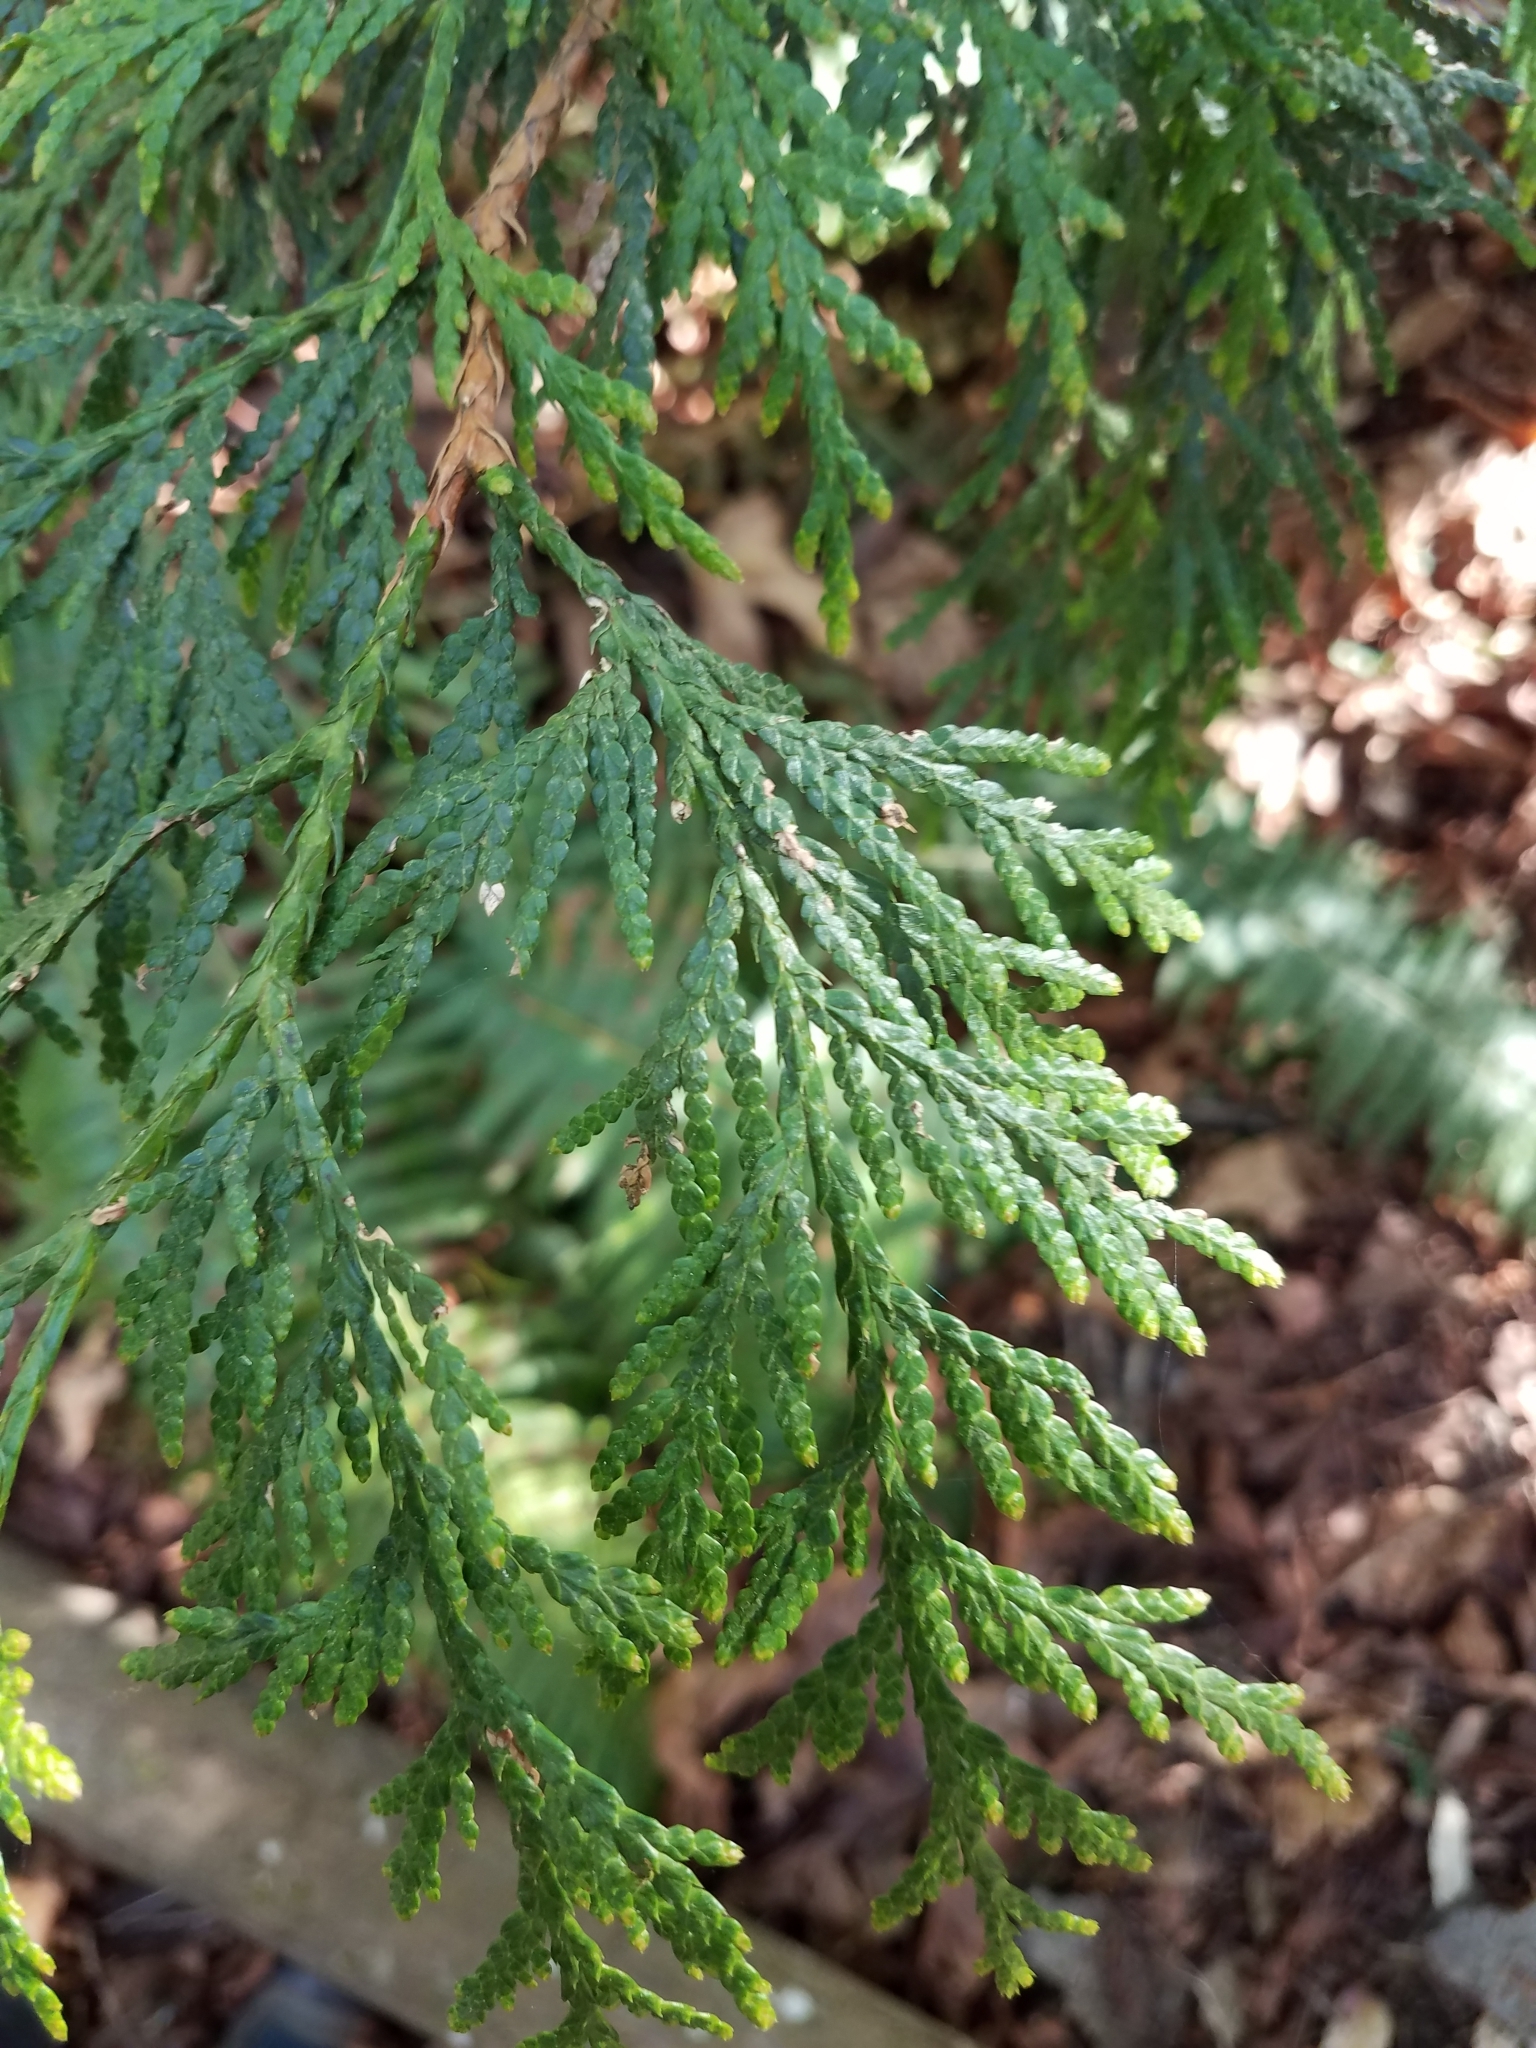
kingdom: Plantae
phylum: Tracheophyta
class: Pinopsida
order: Pinales
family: Cupressaceae
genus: Thuja
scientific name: Thuja plicata
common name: Western red-cedar
